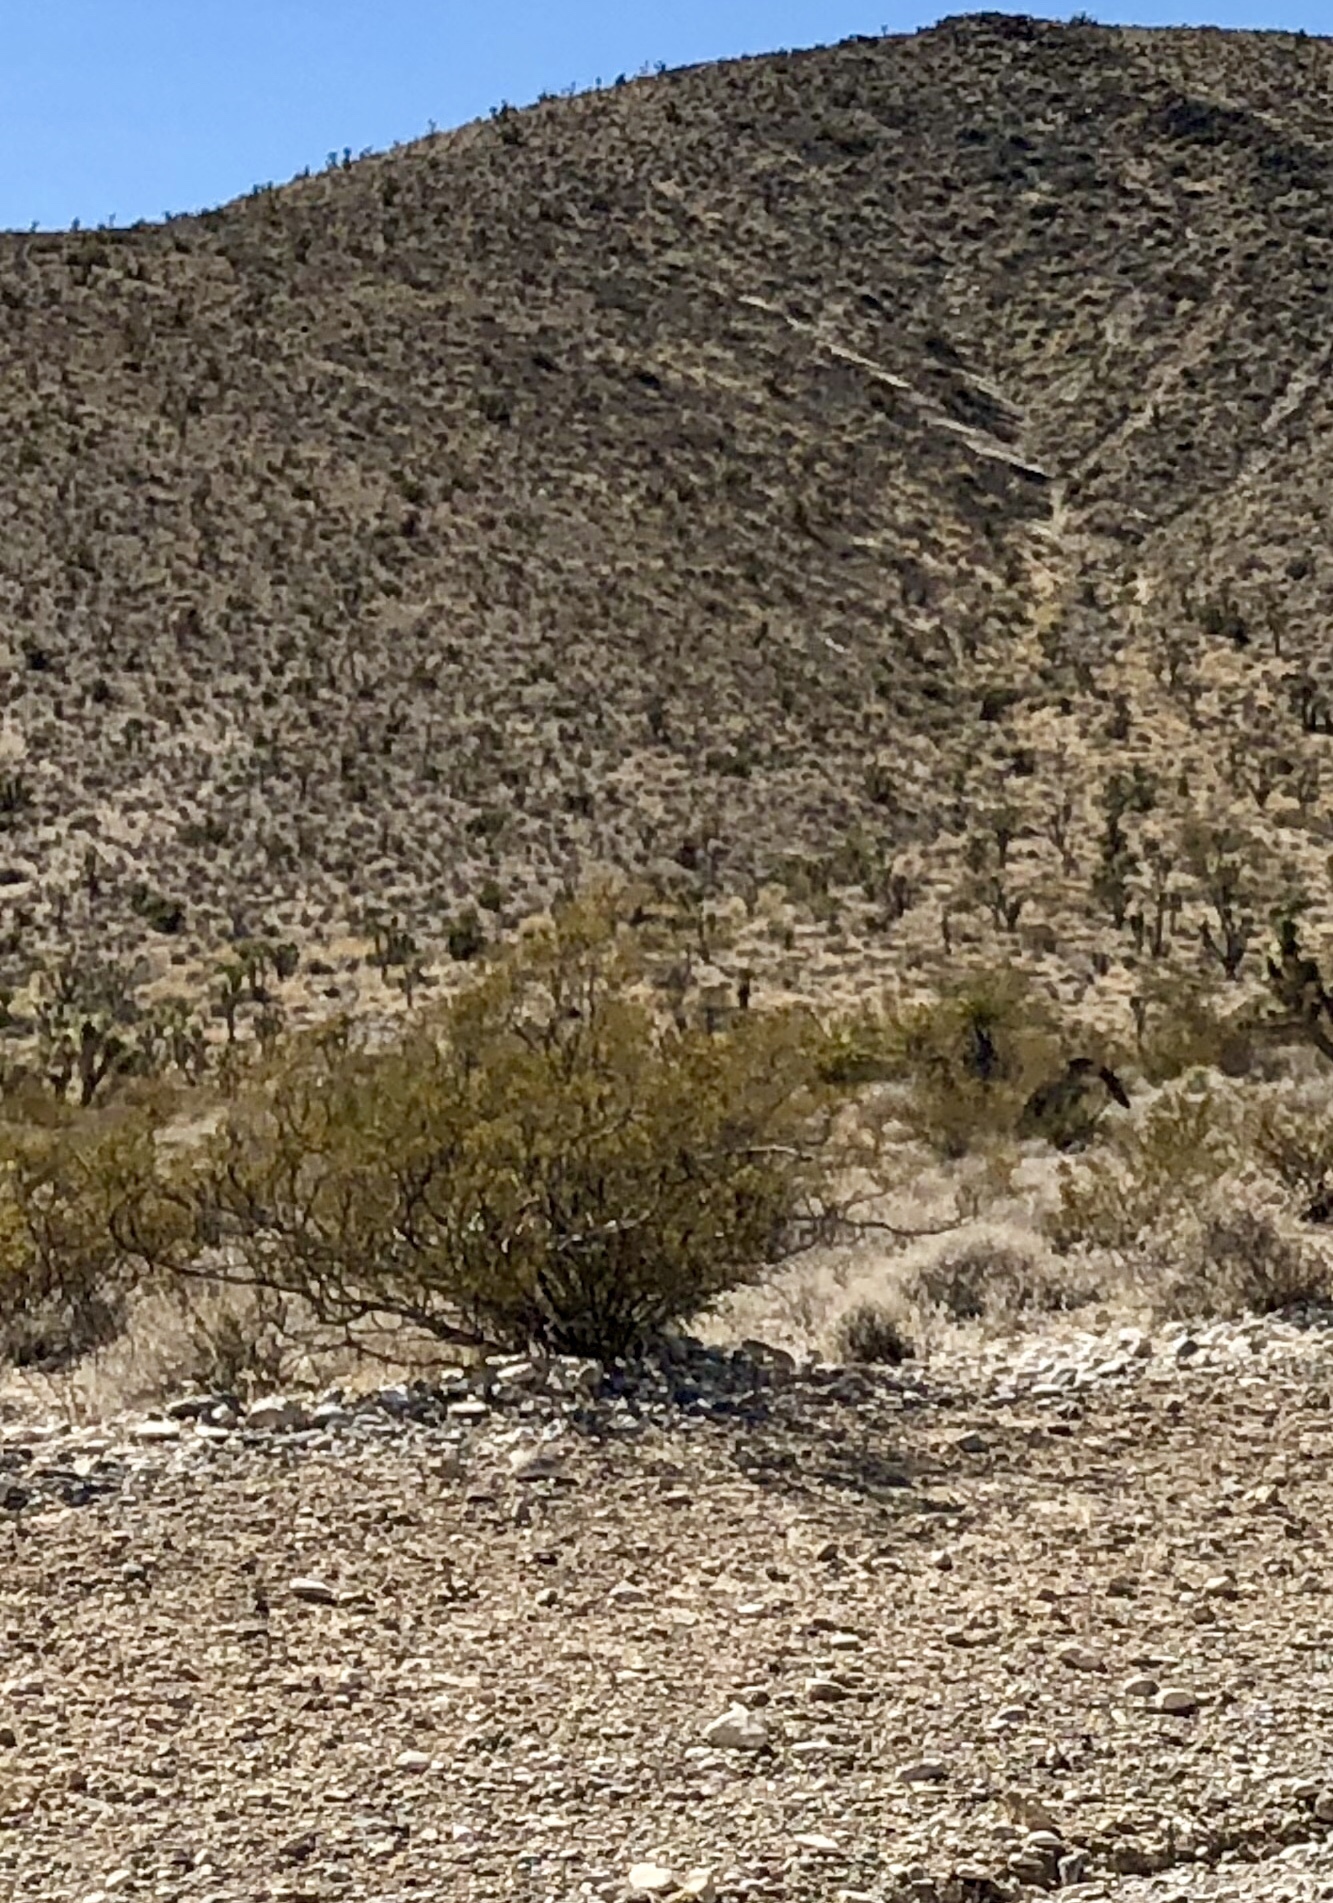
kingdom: Plantae
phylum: Tracheophyta
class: Magnoliopsida
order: Zygophyllales
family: Zygophyllaceae
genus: Larrea
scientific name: Larrea tridentata
